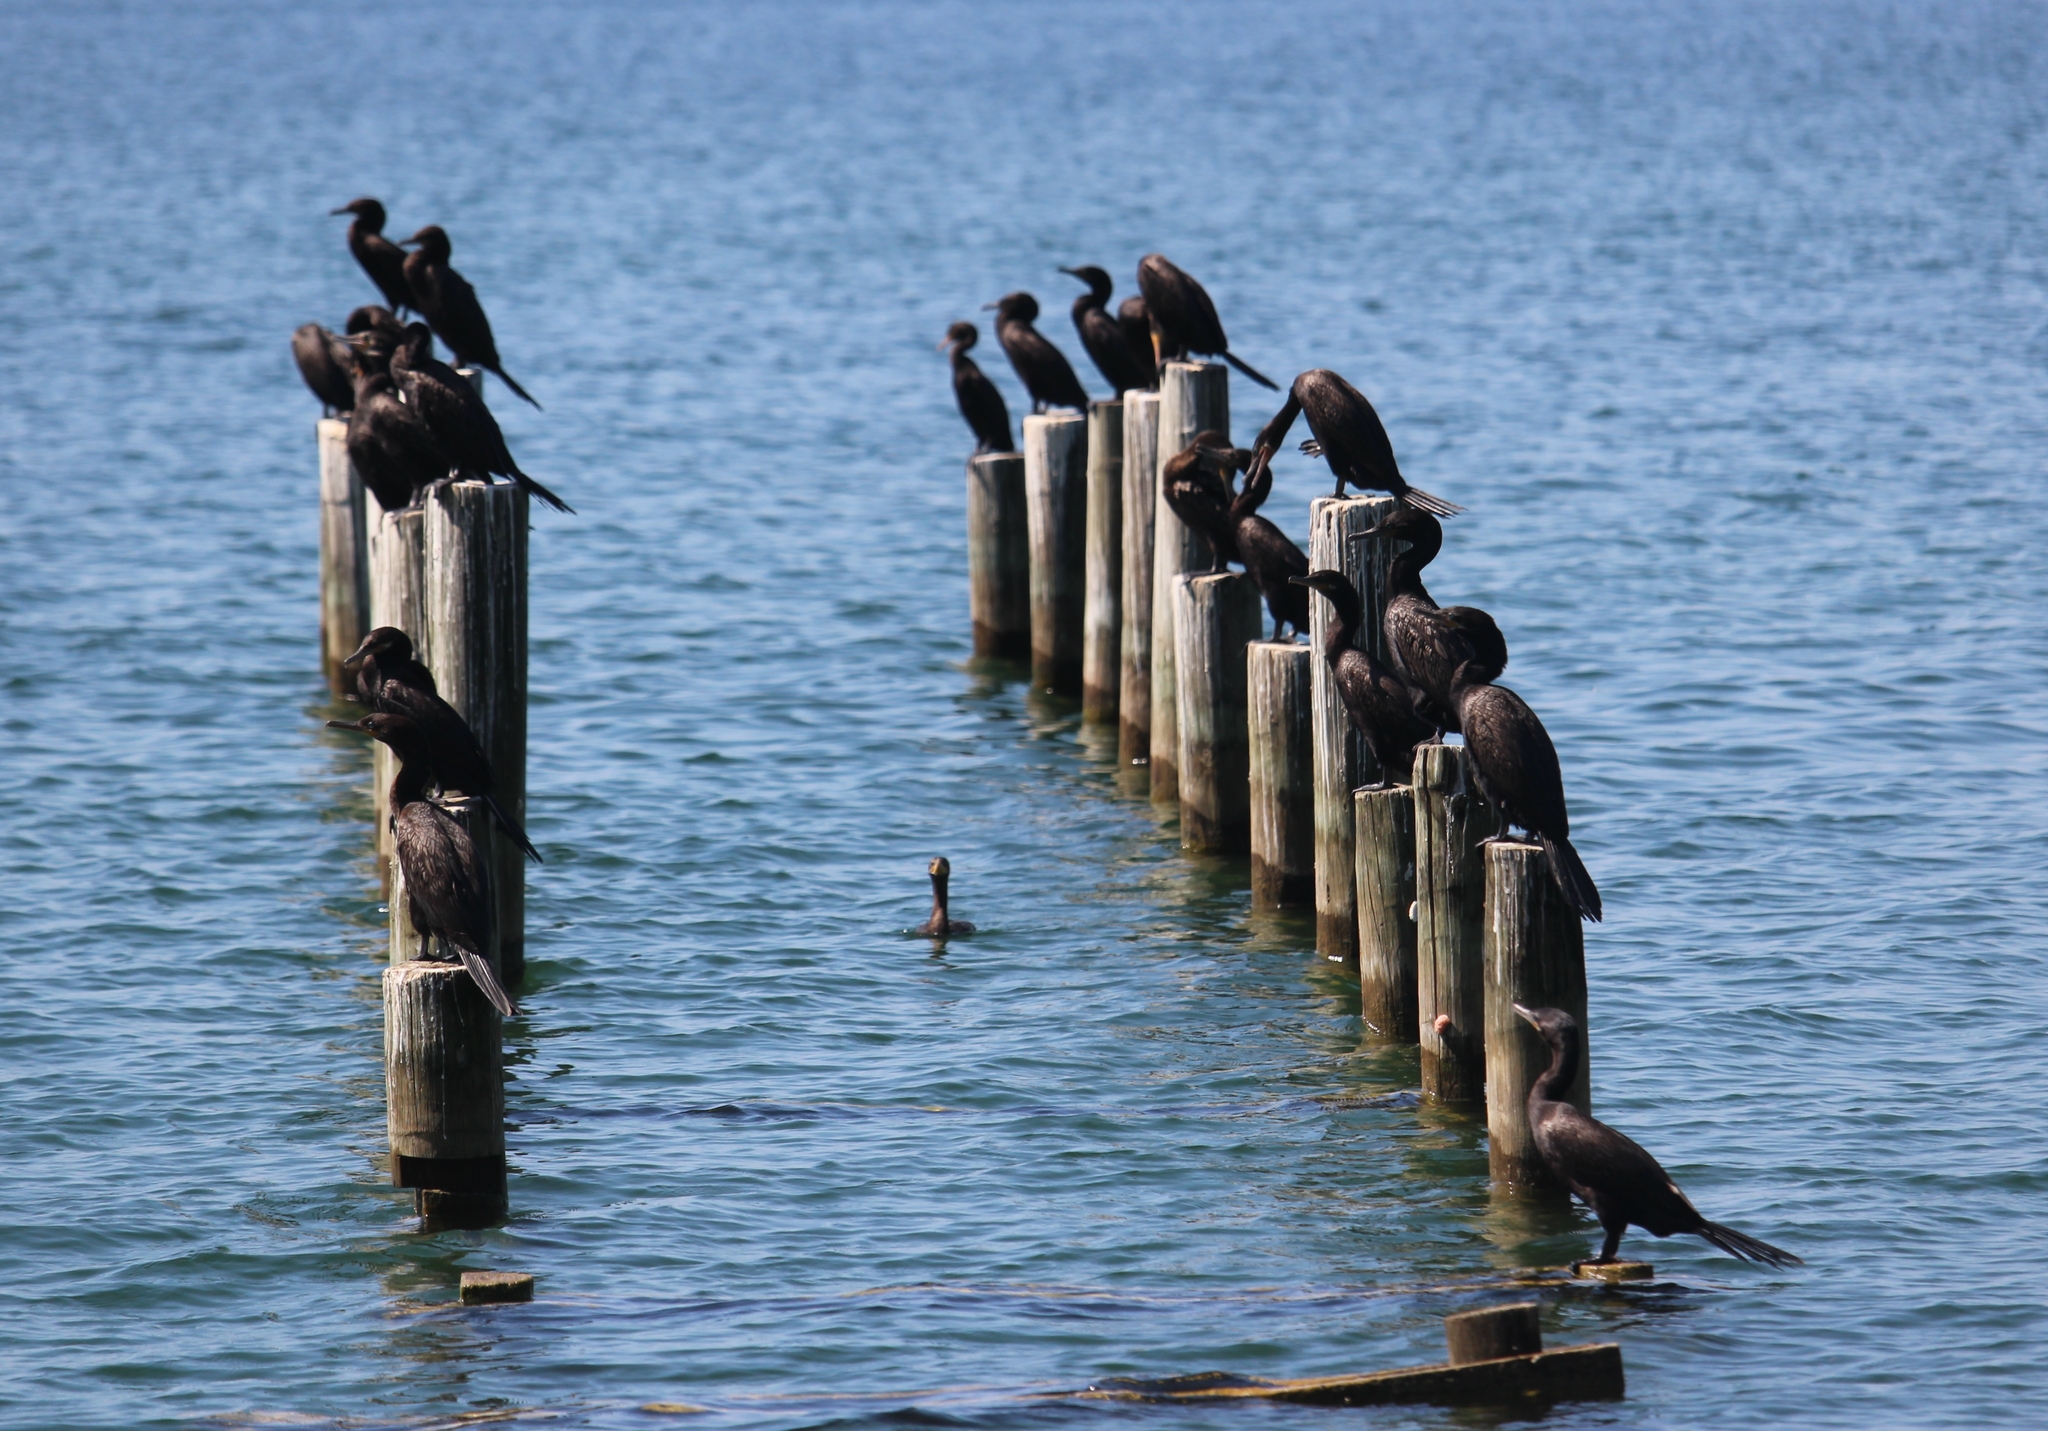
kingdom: Animalia
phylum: Chordata
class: Aves
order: Suliformes
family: Phalacrocoracidae
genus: Phalacrocorax
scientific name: Phalacrocorax brasilianus
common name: Neotropic cormorant
